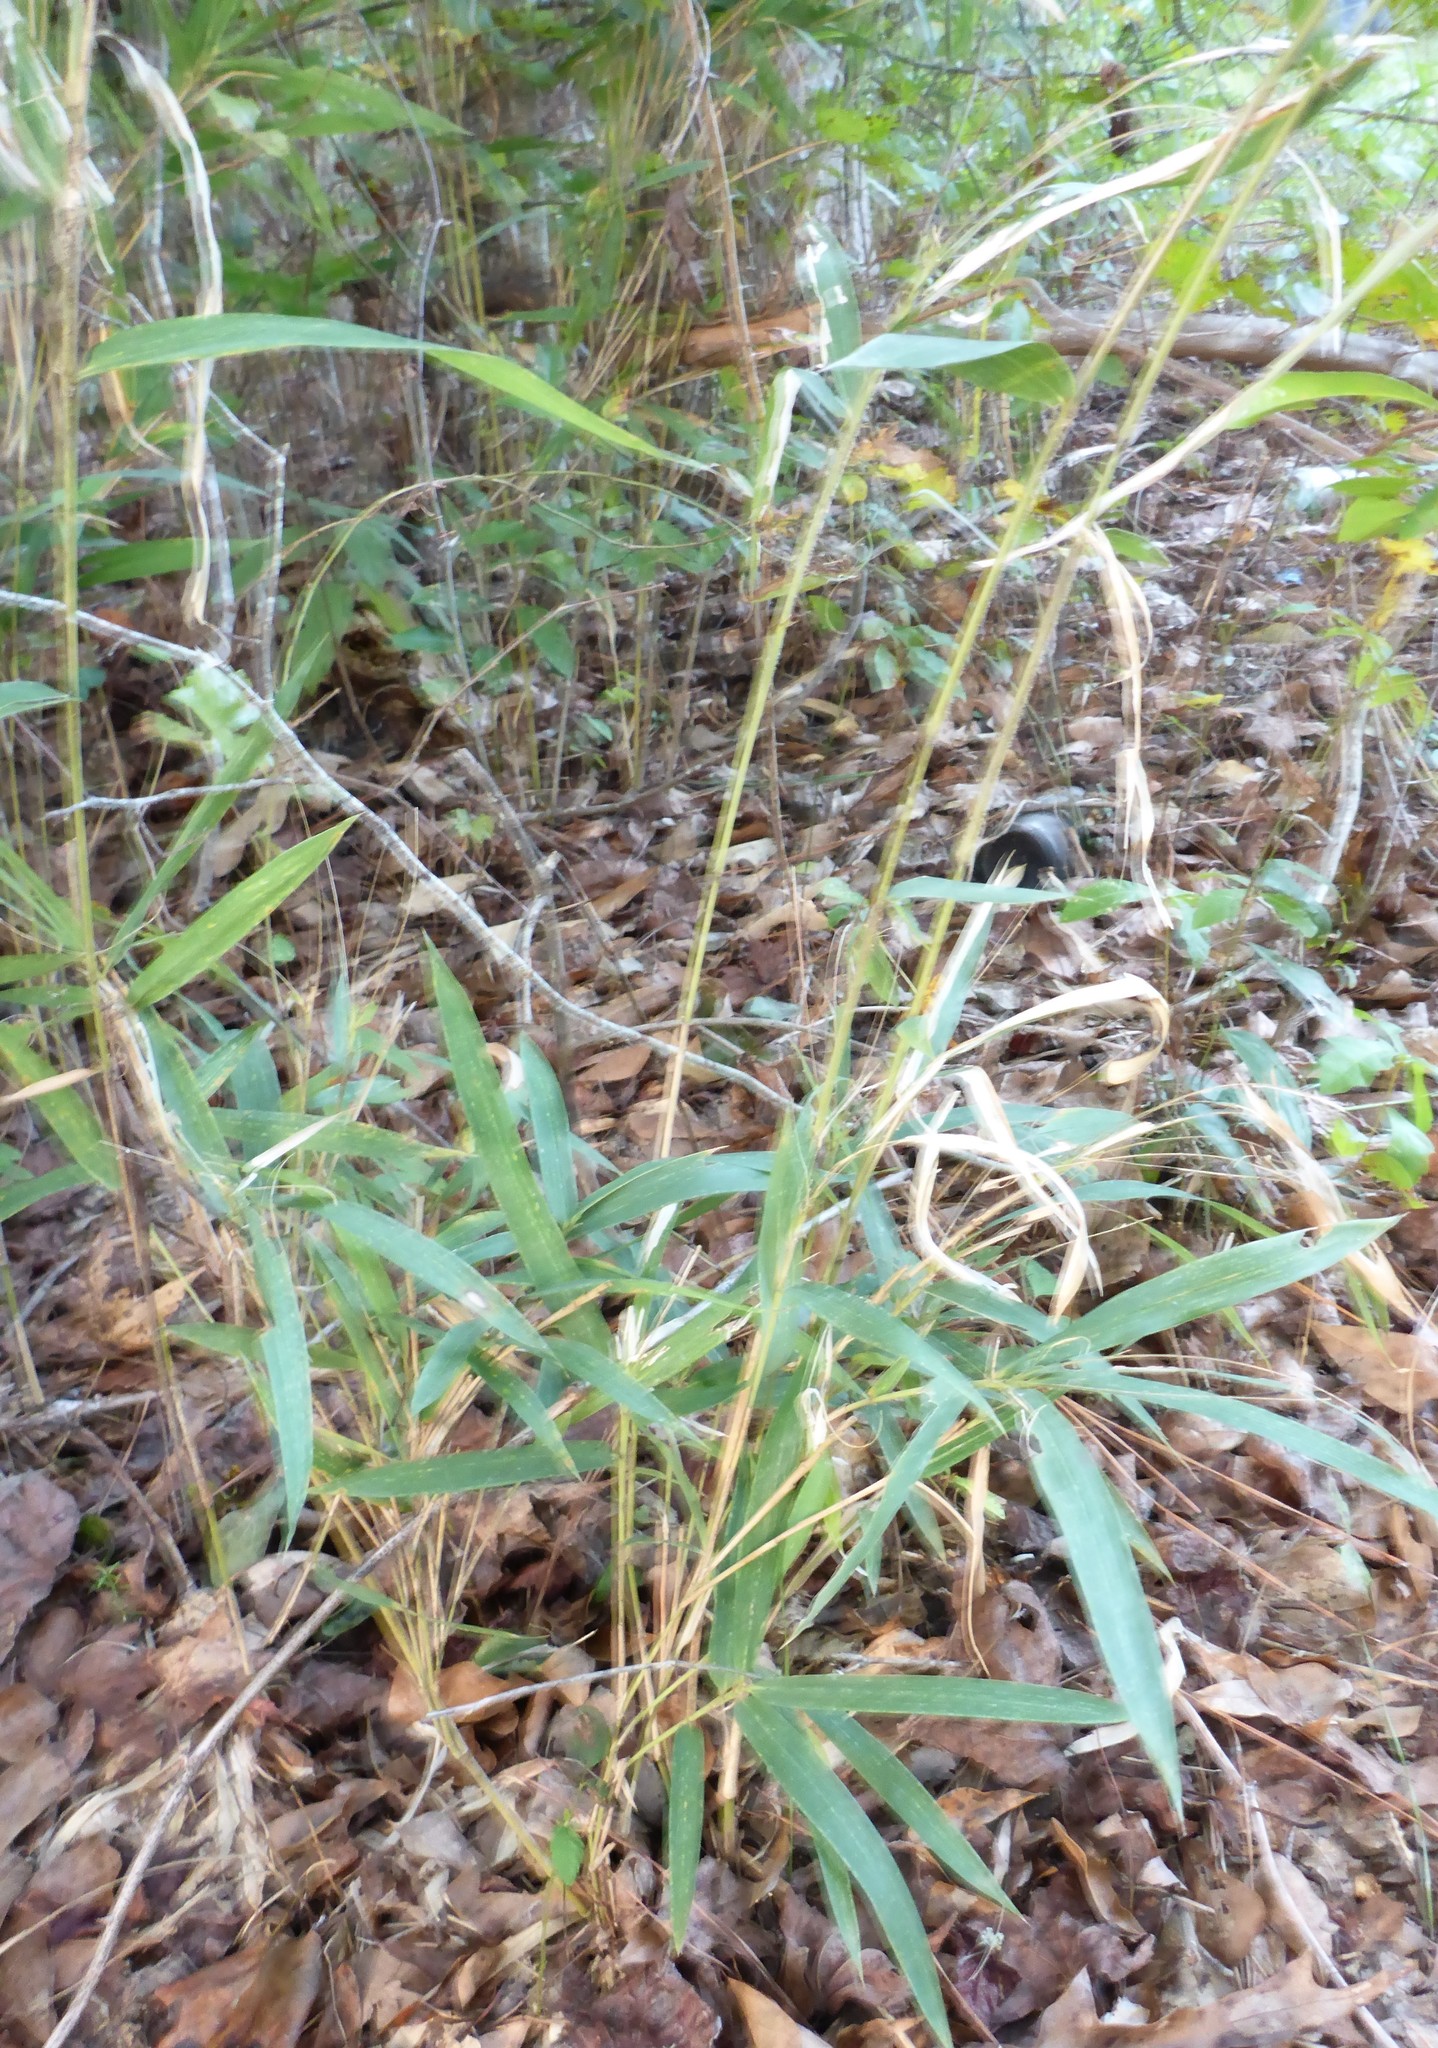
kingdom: Plantae
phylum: Tracheophyta
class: Liliopsida
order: Poales
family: Poaceae
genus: Arundinaria
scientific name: Arundinaria tecta
